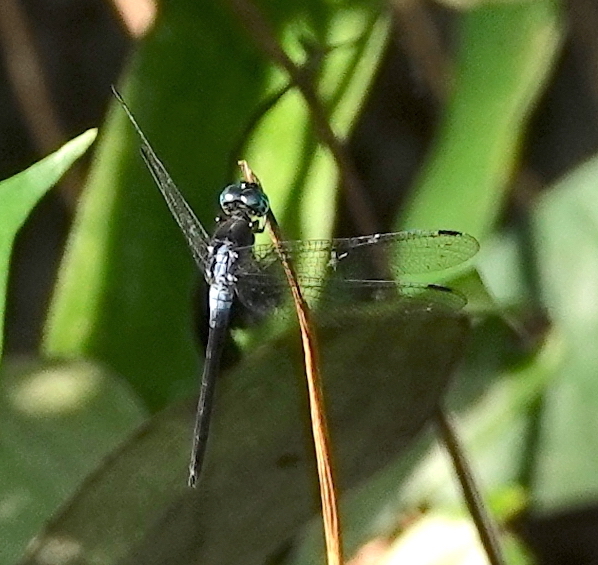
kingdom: Animalia
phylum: Arthropoda
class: Insecta
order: Odonata
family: Libellulidae
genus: Cannaphila
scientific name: Cannaphila insularis
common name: Gray-waisted skimmer
